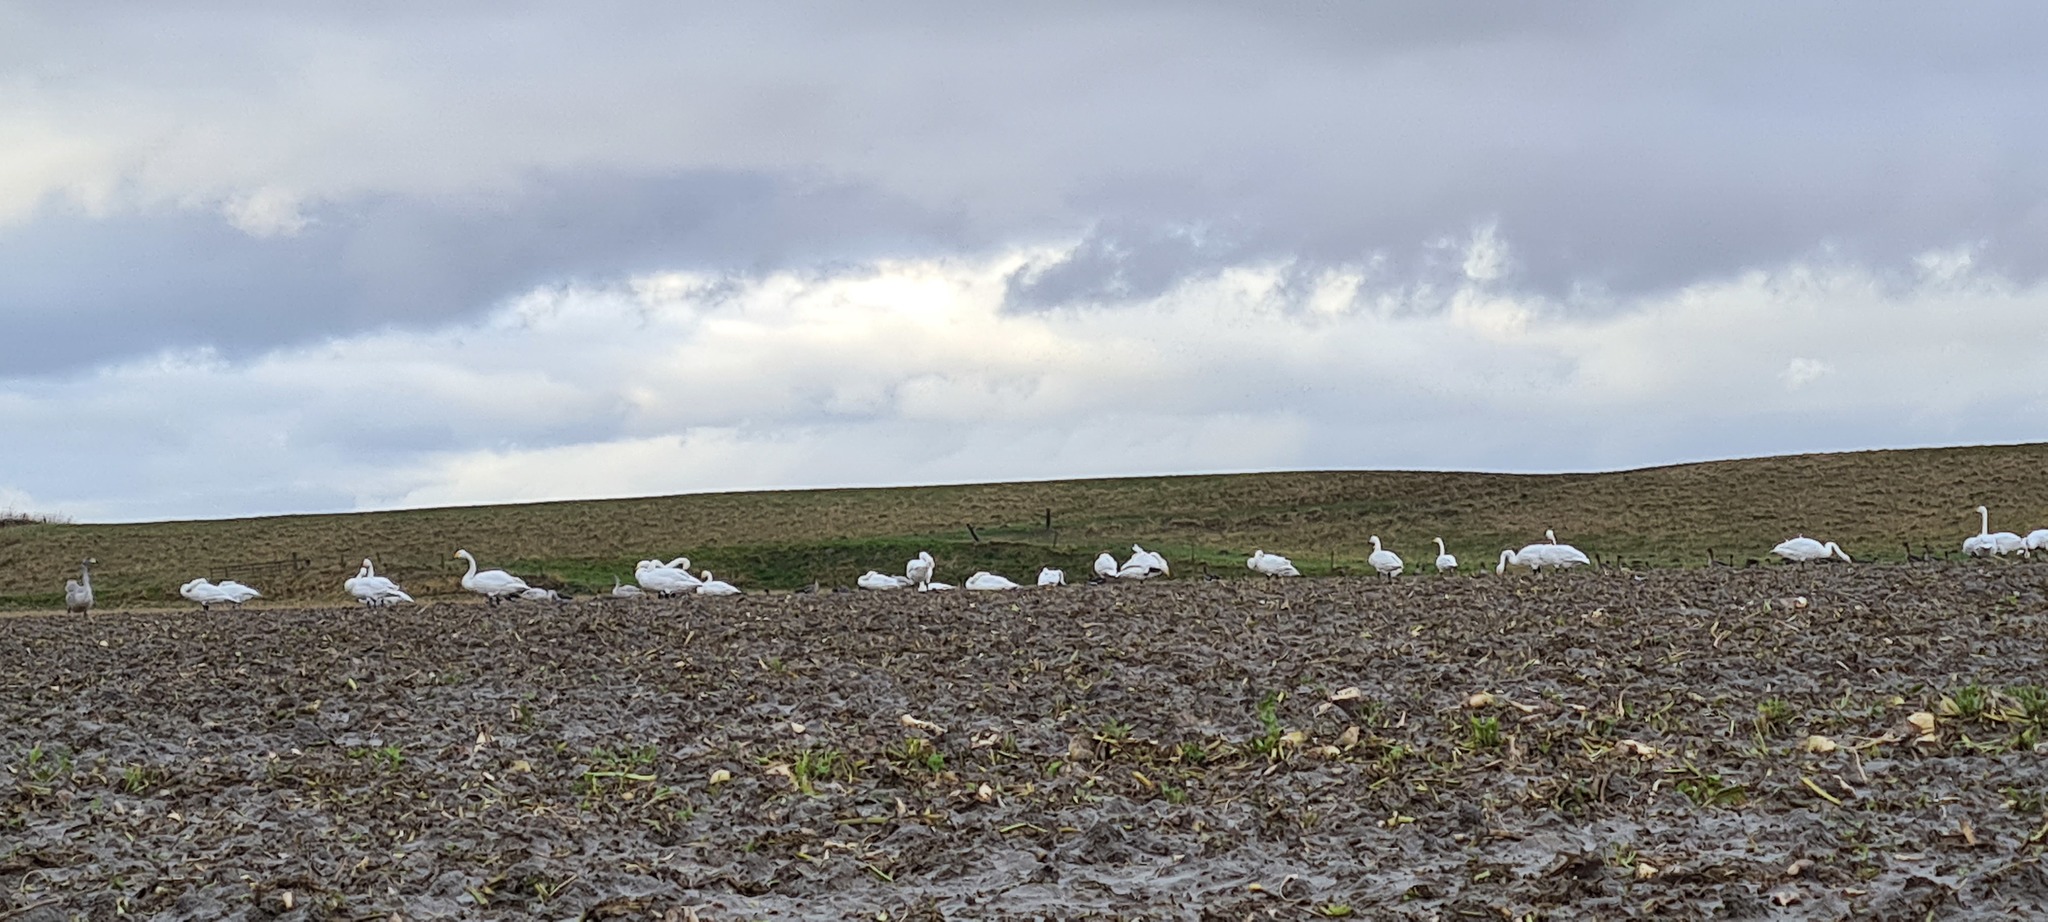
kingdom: Animalia
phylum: Chordata
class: Aves
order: Anseriformes
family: Anatidae
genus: Cygnus
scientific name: Cygnus cygnus
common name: Whooper swan
